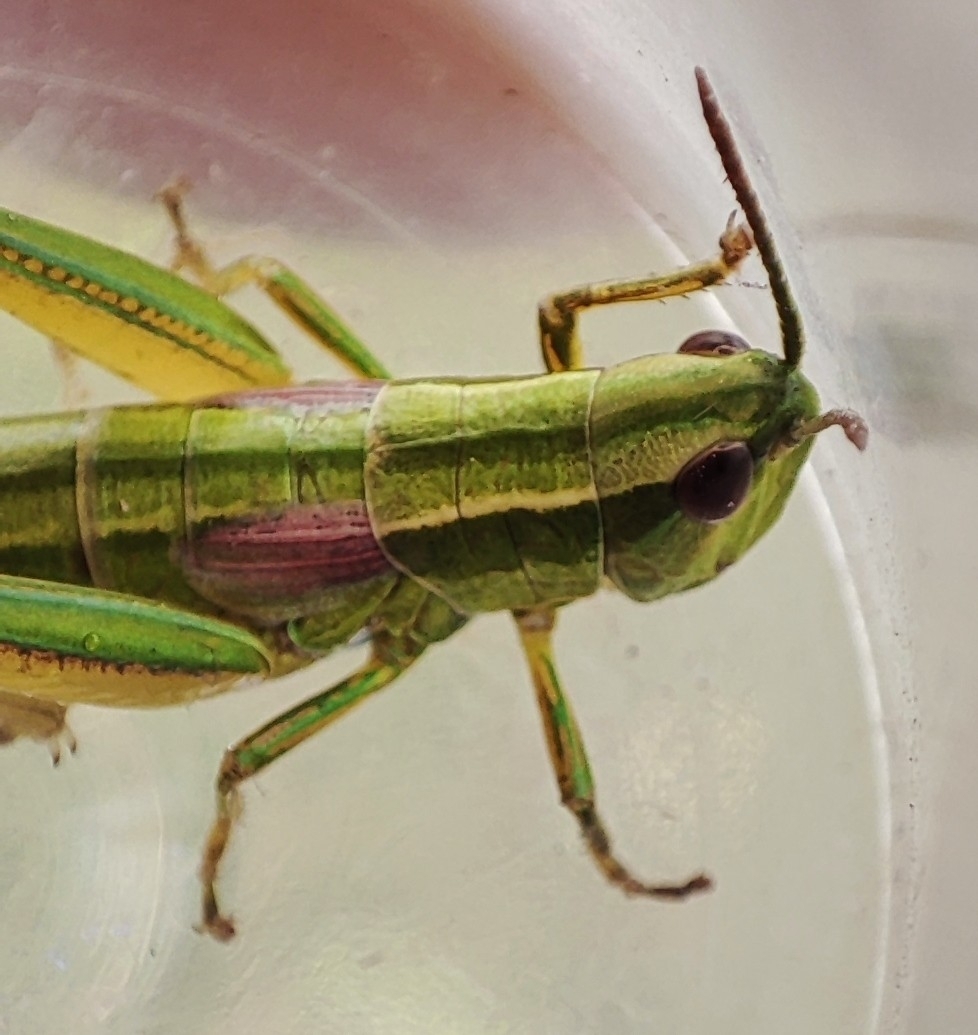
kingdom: Animalia
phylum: Arthropoda
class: Insecta
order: Orthoptera
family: Acrididae
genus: Euthystira
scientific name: Euthystira brachyptera
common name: Small gold grasshopper
